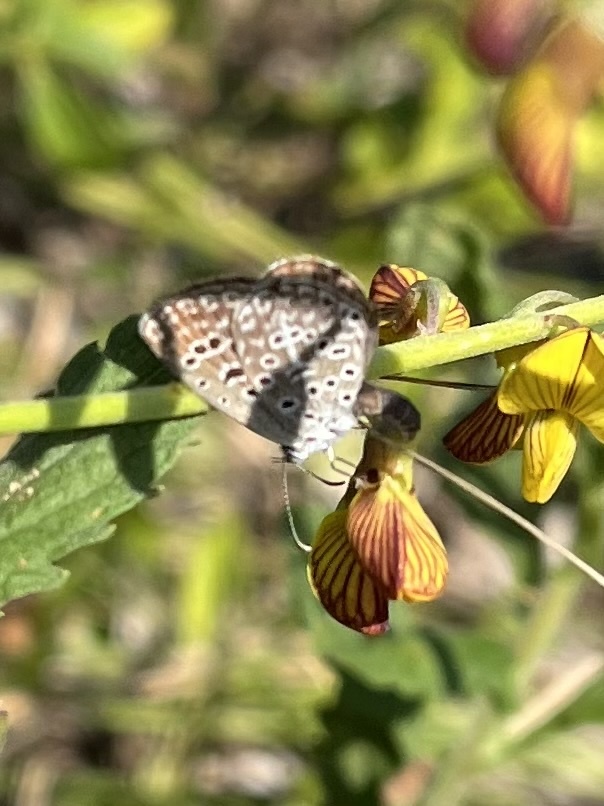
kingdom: Animalia
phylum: Arthropoda
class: Insecta
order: Lepidoptera
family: Lycaenidae
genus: Actizera
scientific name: Actizera lucida
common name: Rayed blue
